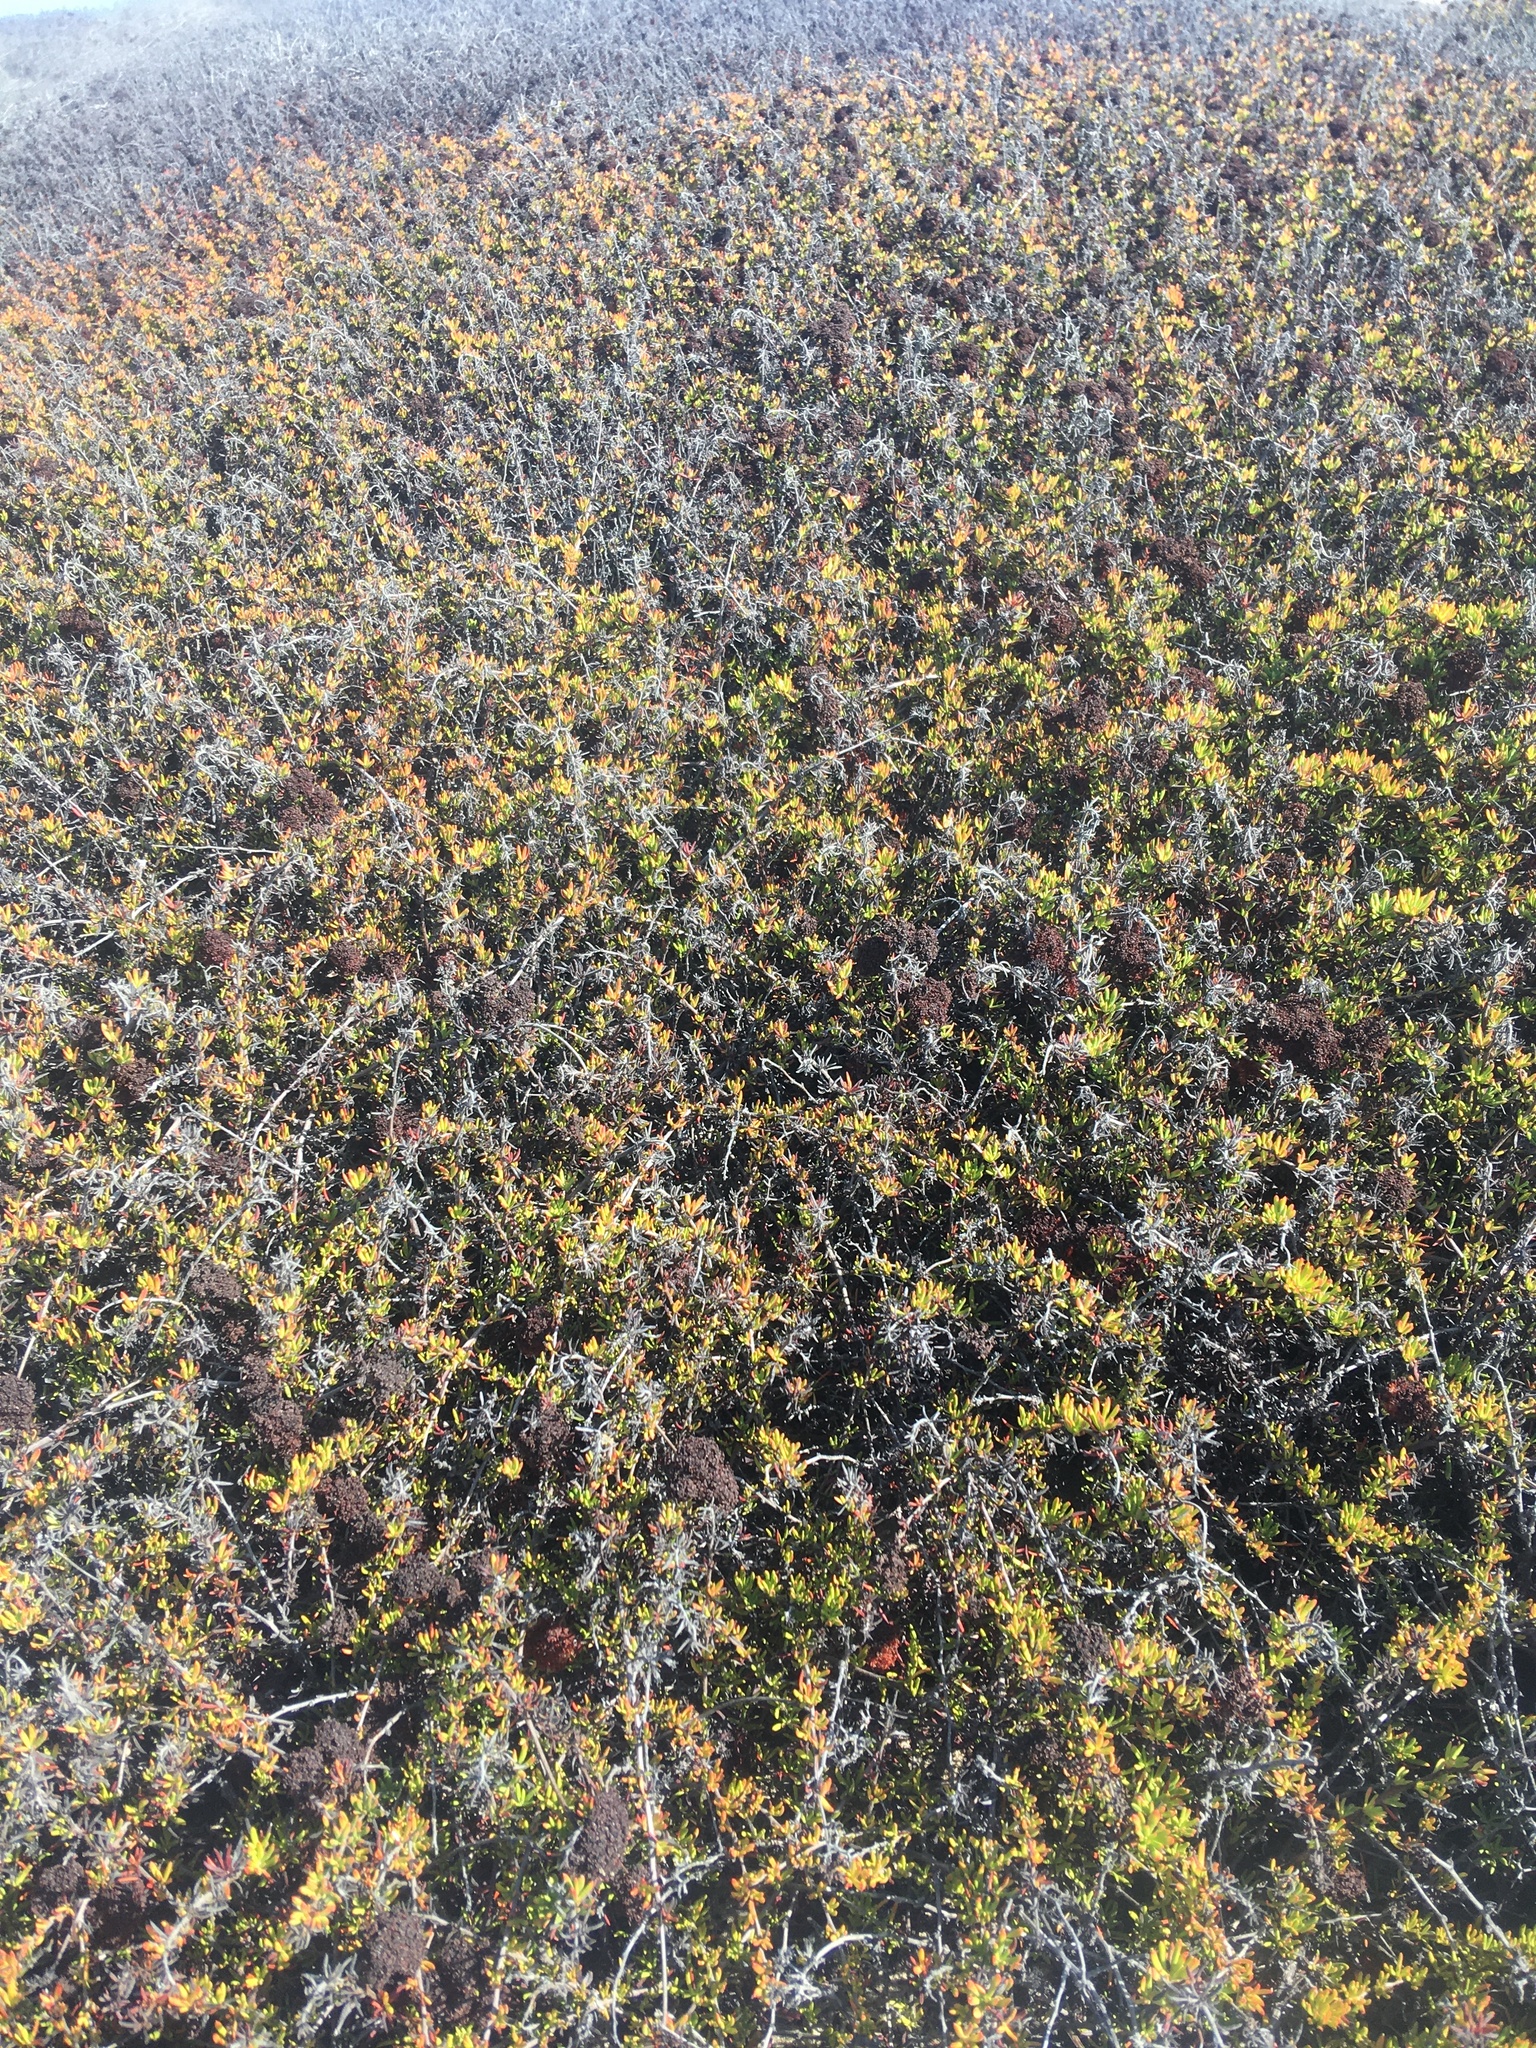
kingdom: Plantae
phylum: Tracheophyta
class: Magnoliopsida
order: Caryophyllales
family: Polygonaceae
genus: Eriogonum
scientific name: Eriogonum fasciculatum
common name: California wild buckwheat
